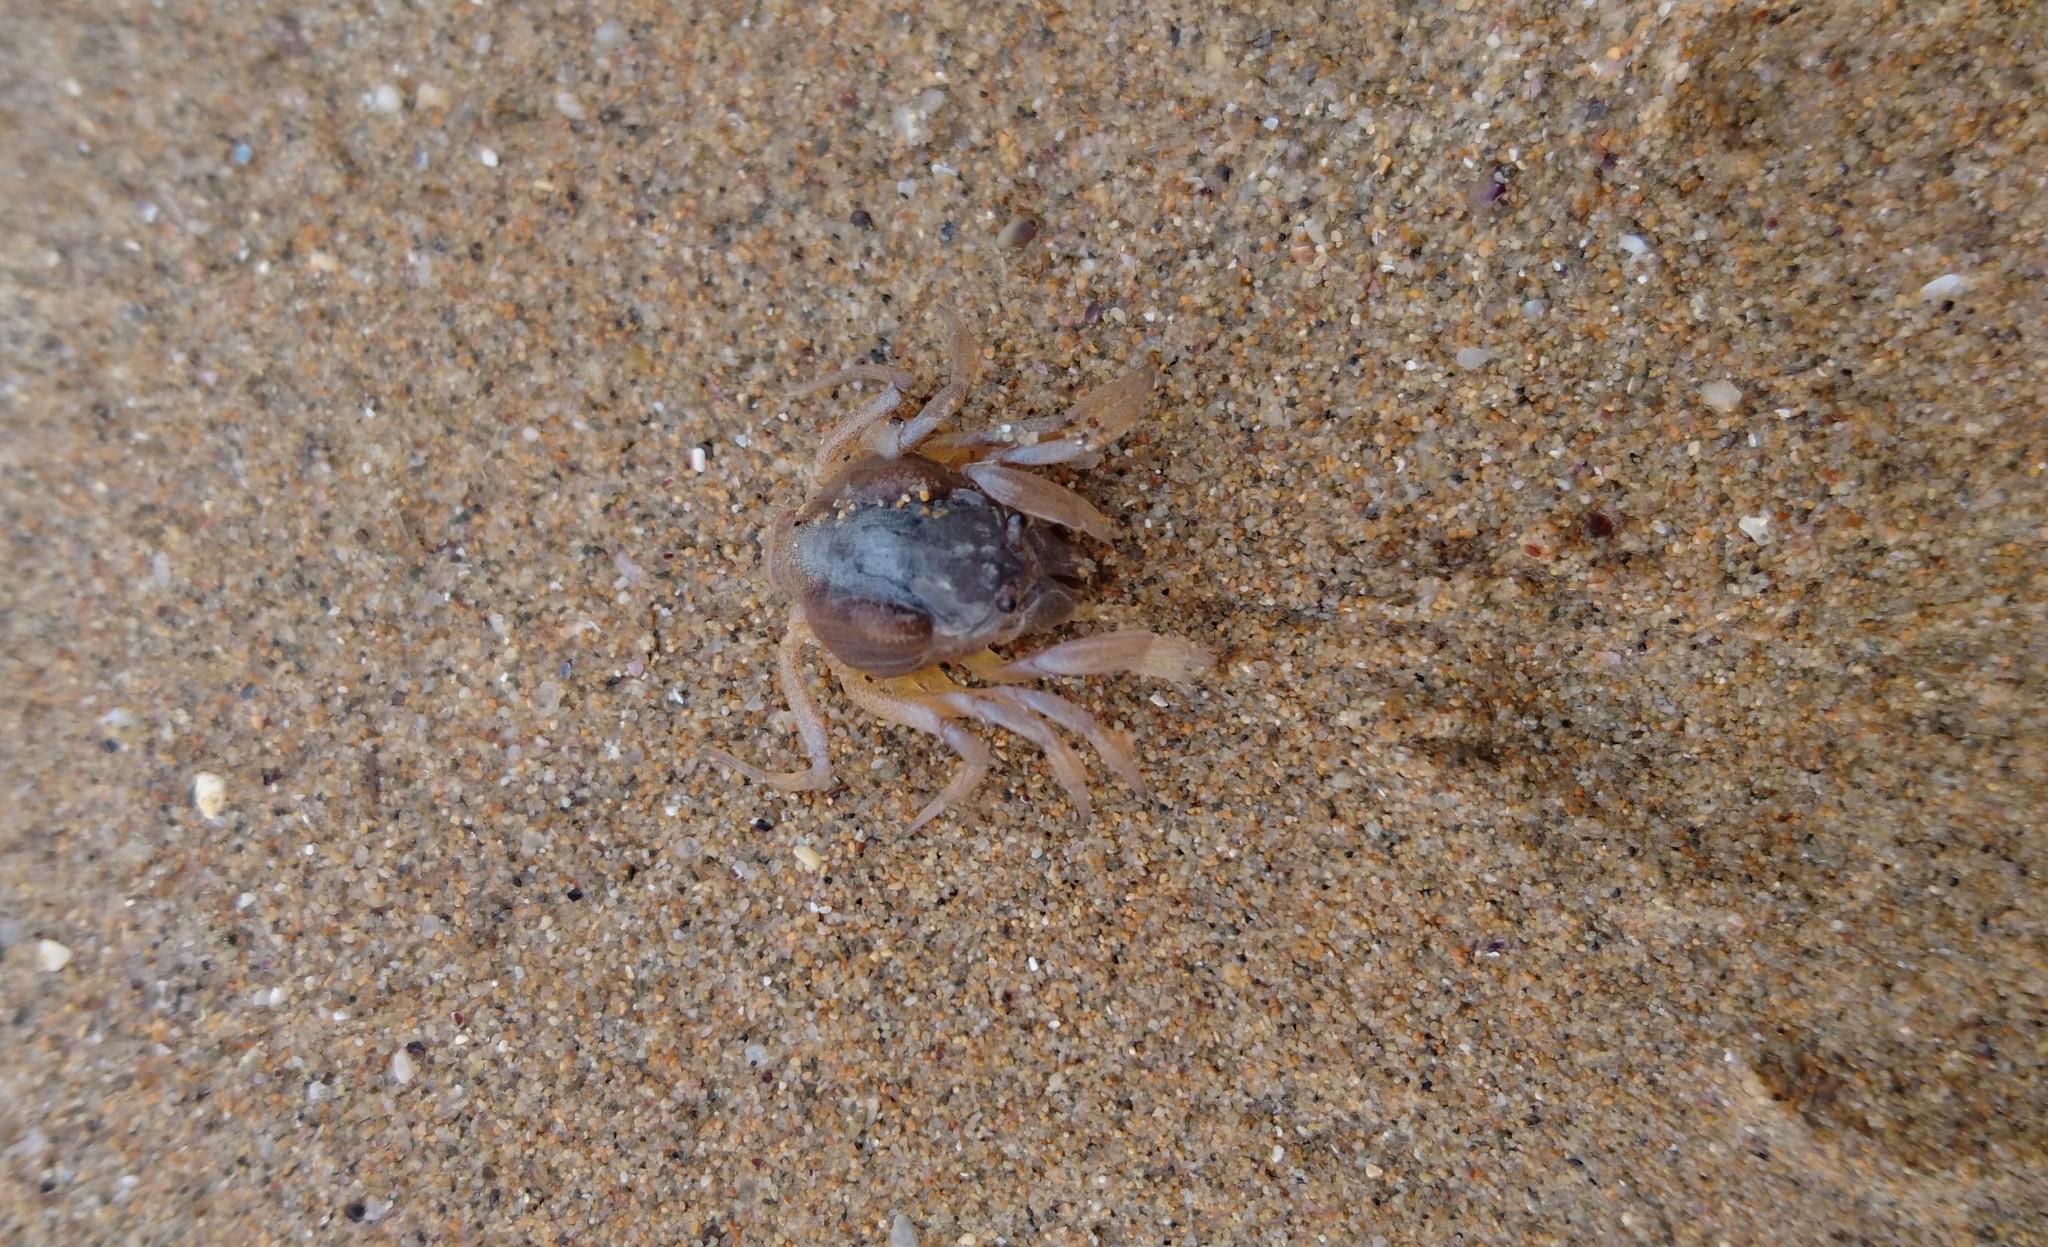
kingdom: Animalia
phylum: Arthropoda
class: Malacostraca
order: Decapoda
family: Mictyridae
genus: Mictyris
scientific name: Mictyris platycheles
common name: Dark blue soldier crab
